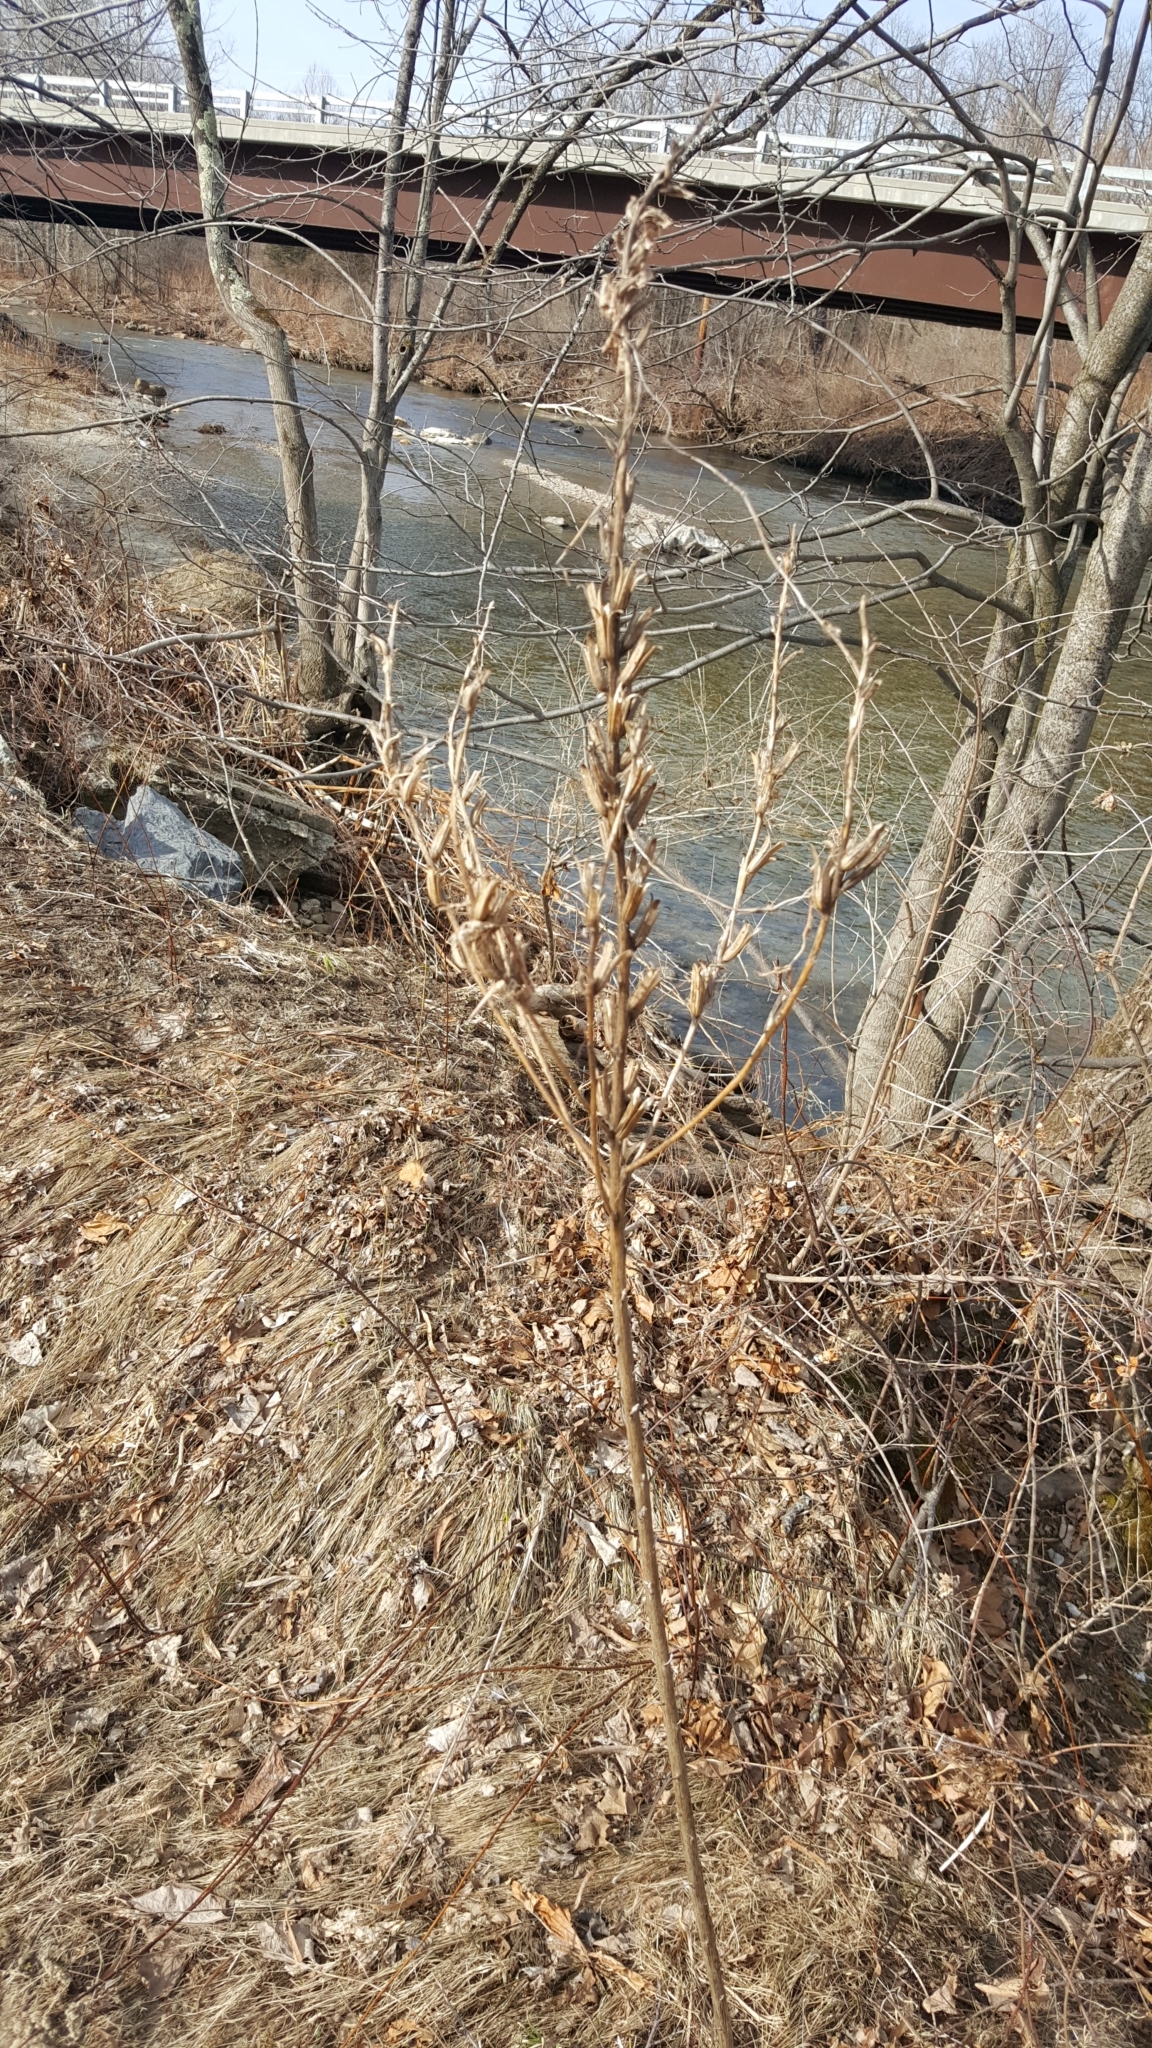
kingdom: Plantae
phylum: Tracheophyta
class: Magnoliopsida
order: Myrtales
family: Onagraceae
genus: Oenothera
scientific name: Oenothera biennis
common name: Common evening-primrose
